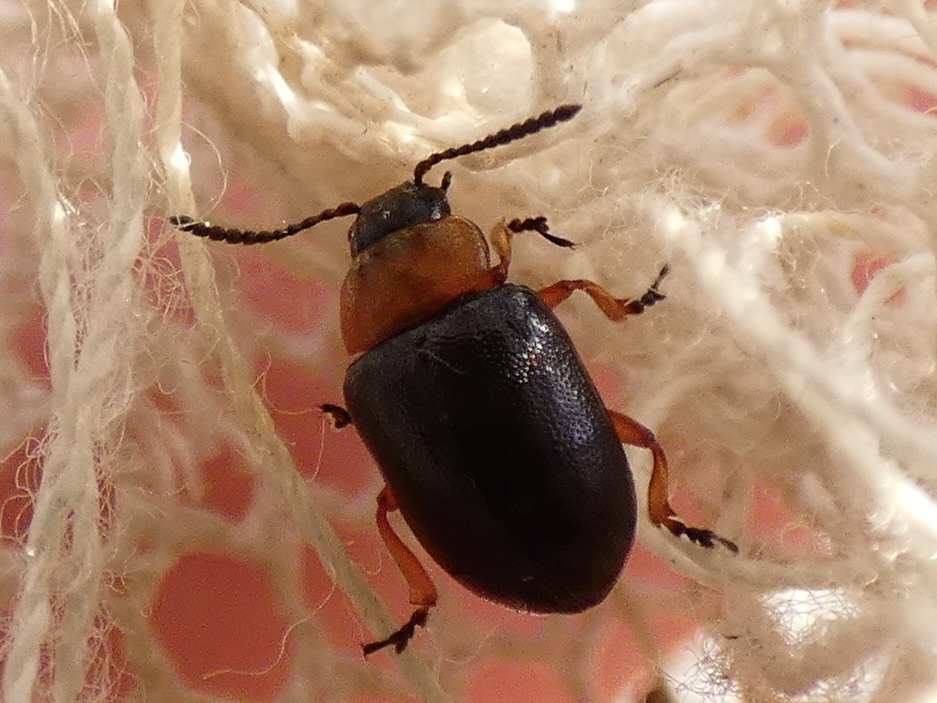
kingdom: Animalia
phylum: Arthropoda
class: Insecta
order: Coleoptera
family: Chrysomelidae
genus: Gastrophysa
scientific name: Gastrophysa polygoni
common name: Knotweed leaf beetle
